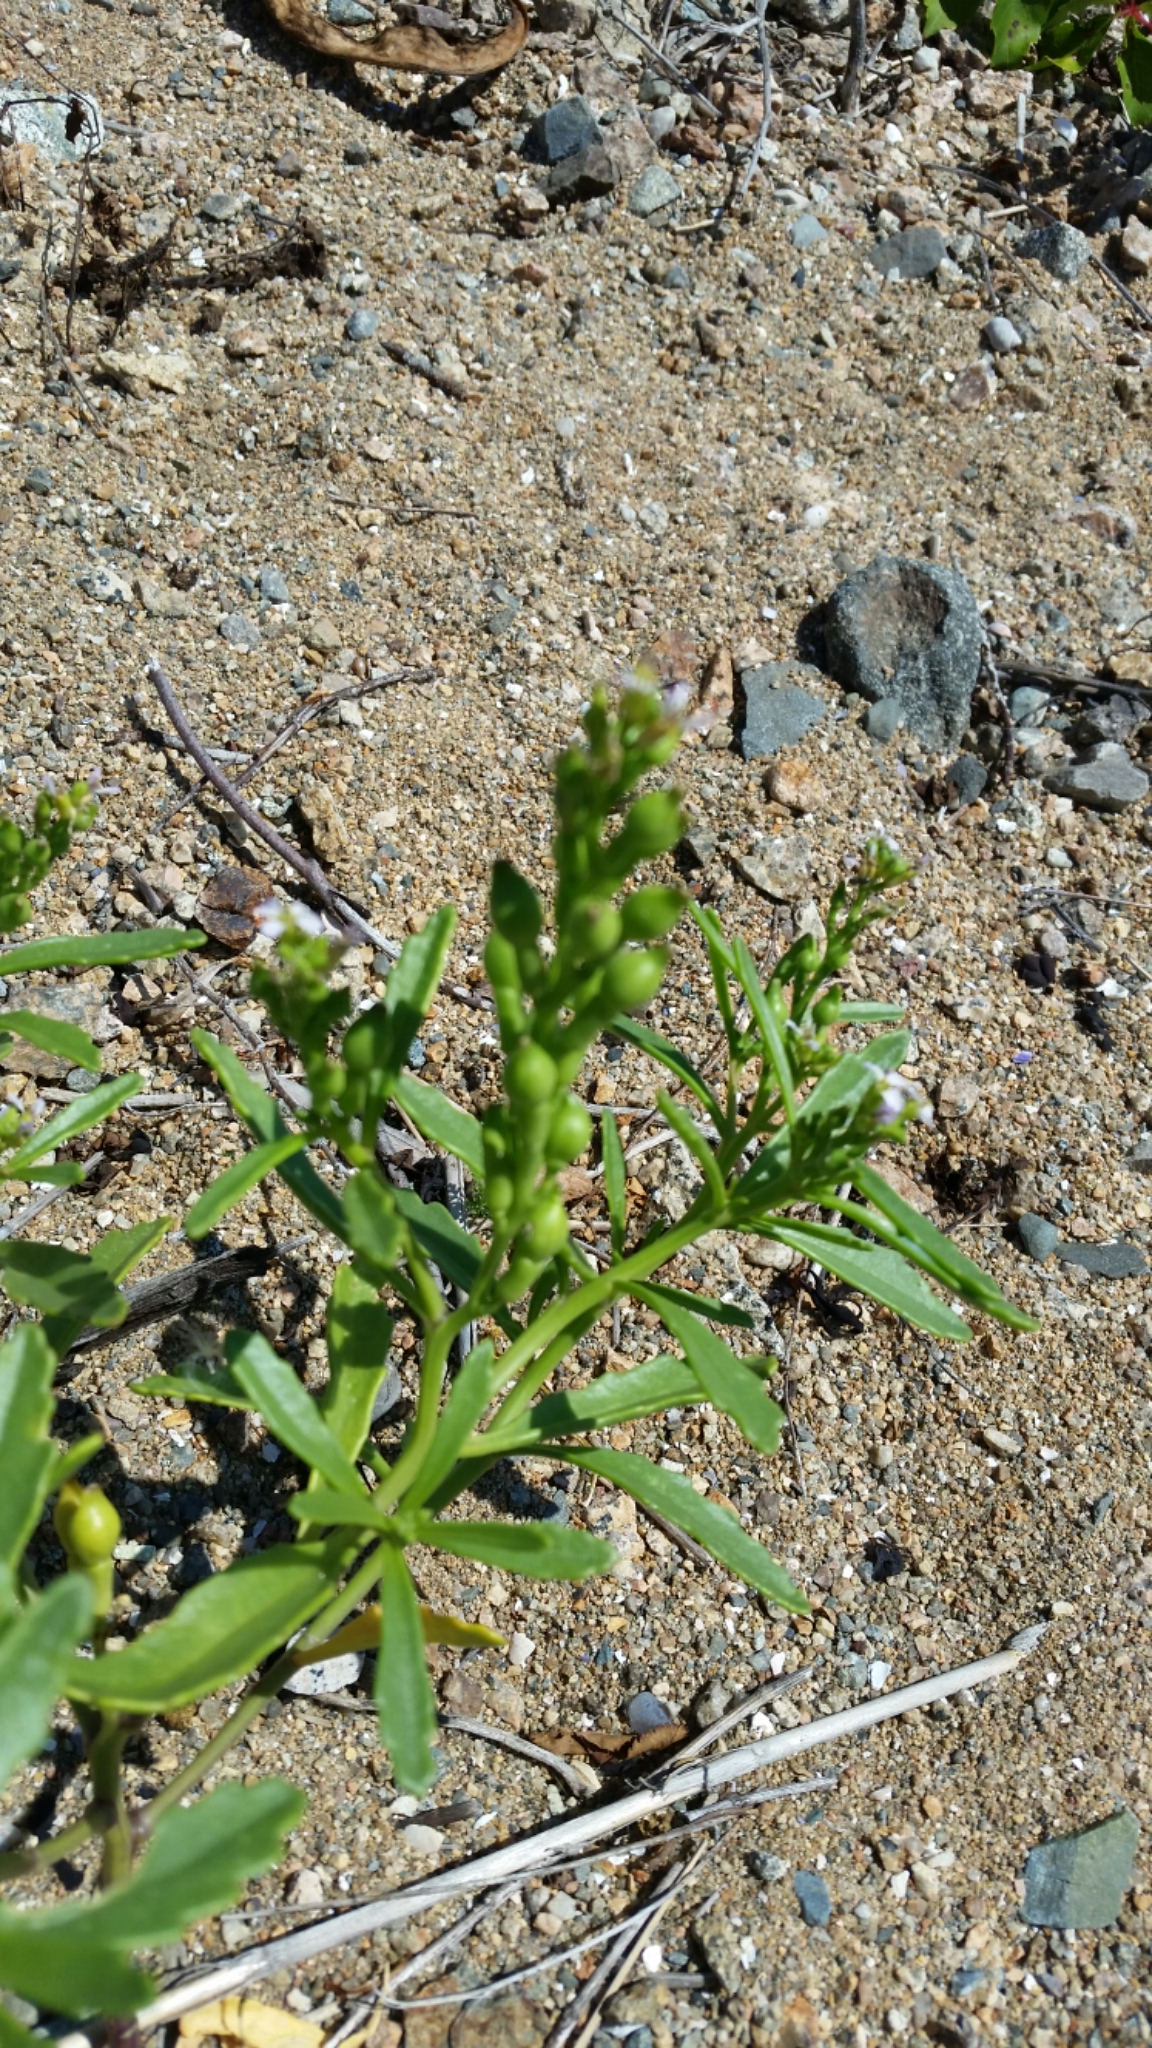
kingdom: Plantae
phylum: Tracheophyta
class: Magnoliopsida
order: Brassicales
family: Brassicaceae
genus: Cakile
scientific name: Cakile edentula
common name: American sea rocket
